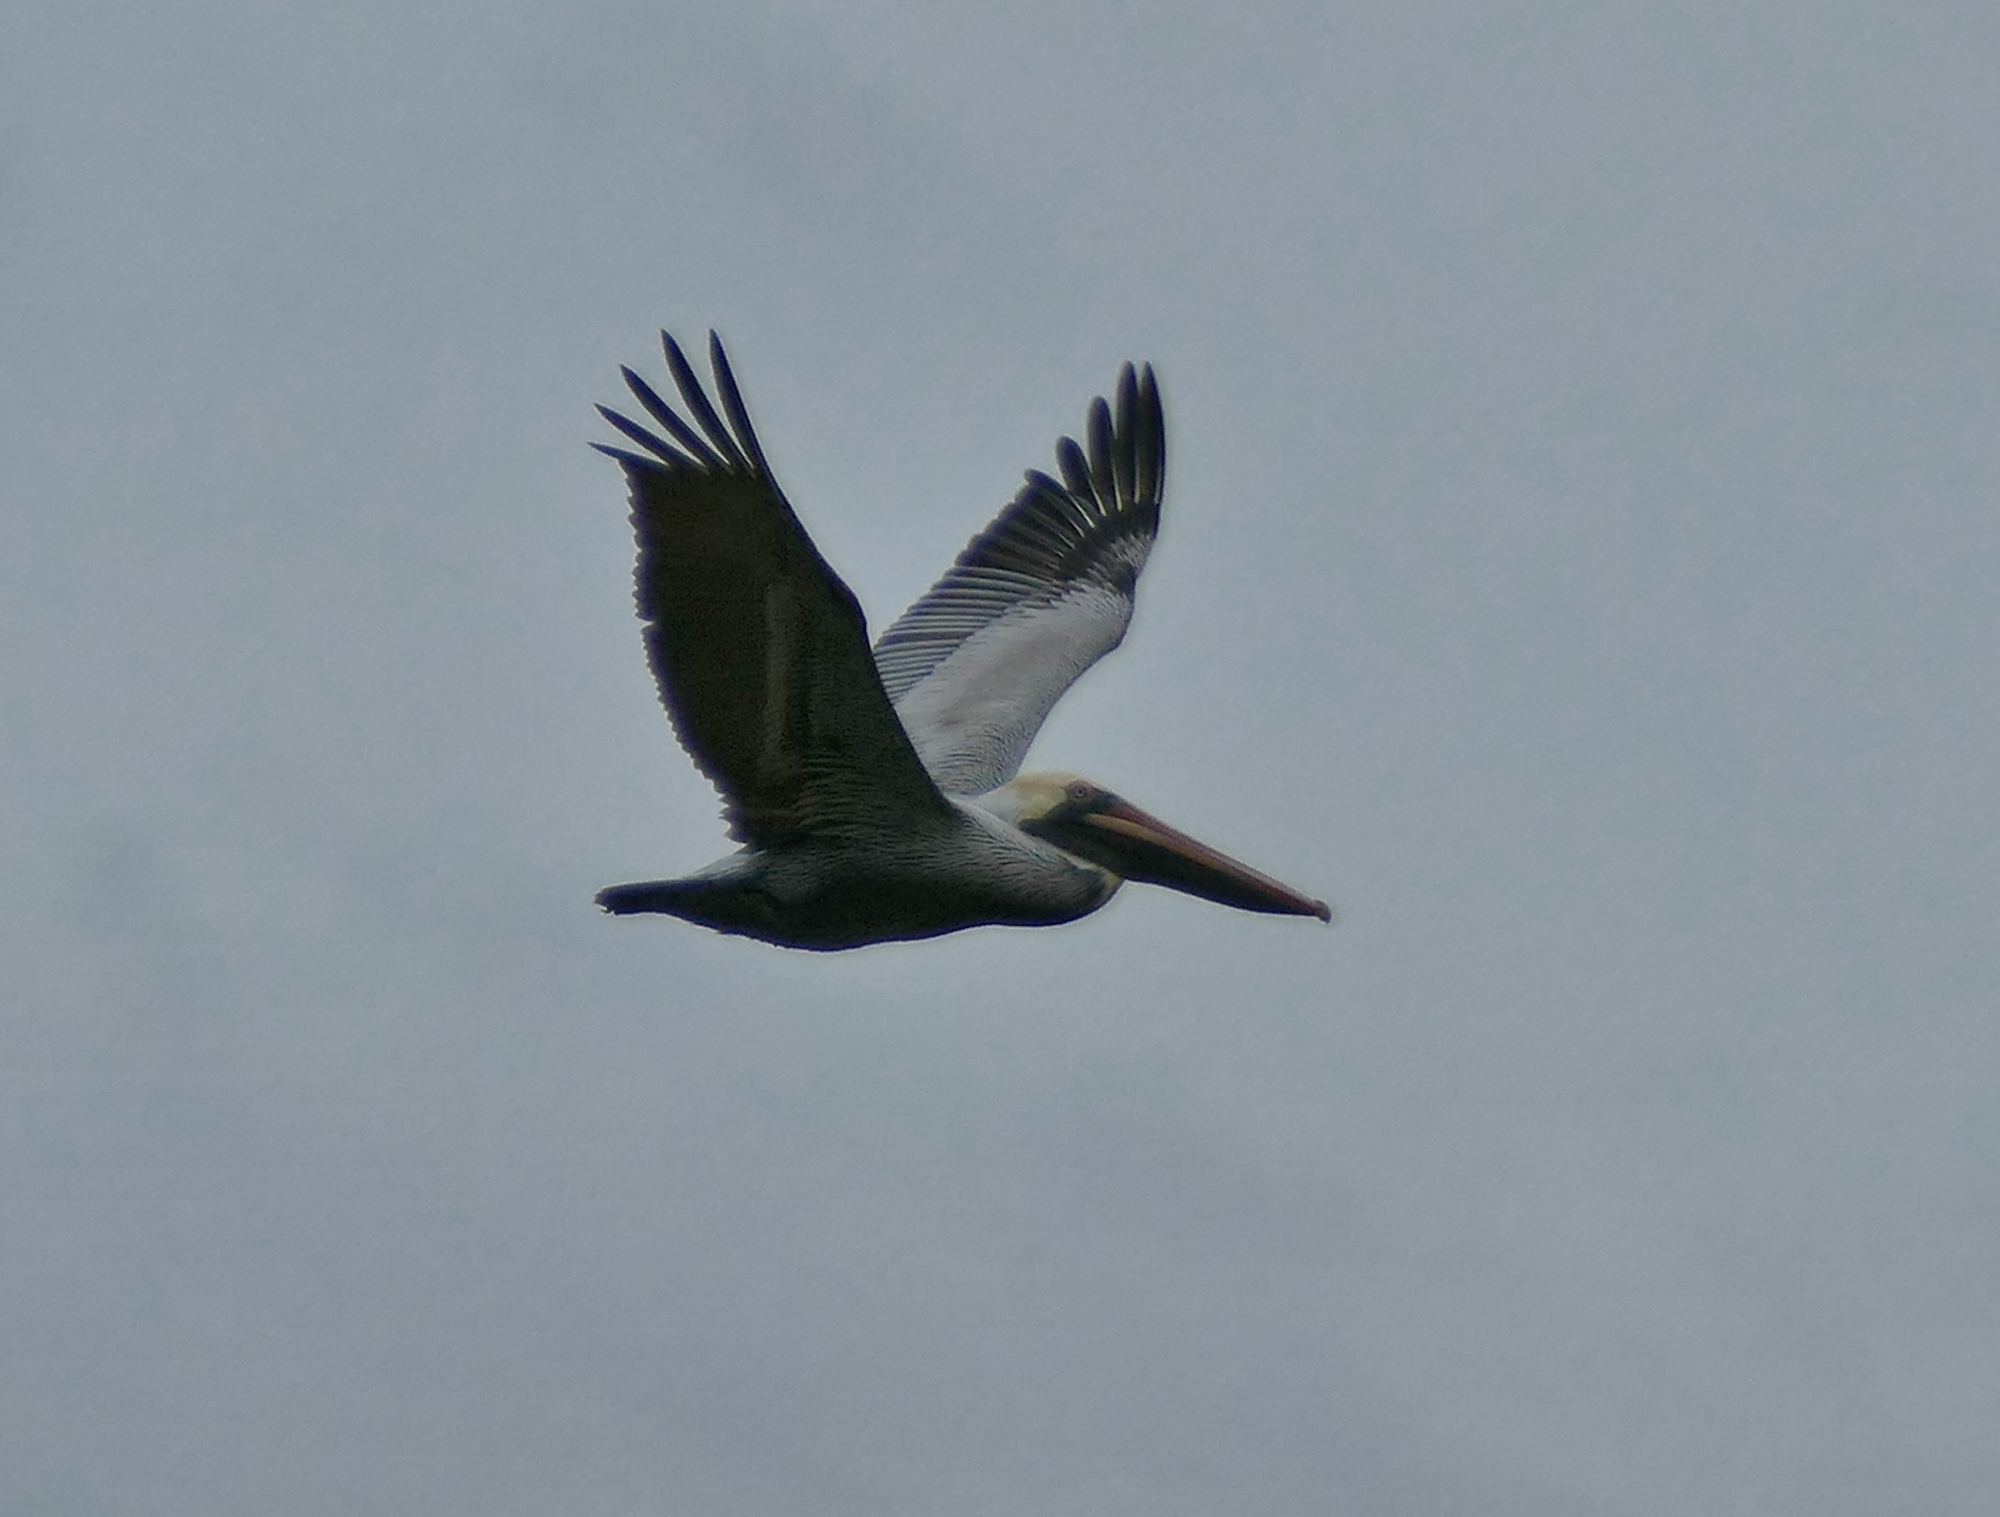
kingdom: Animalia
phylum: Chordata
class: Aves
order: Pelecaniformes
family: Pelecanidae
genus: Pelecanus
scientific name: Pelecanus occidentalis
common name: Brown pelican
